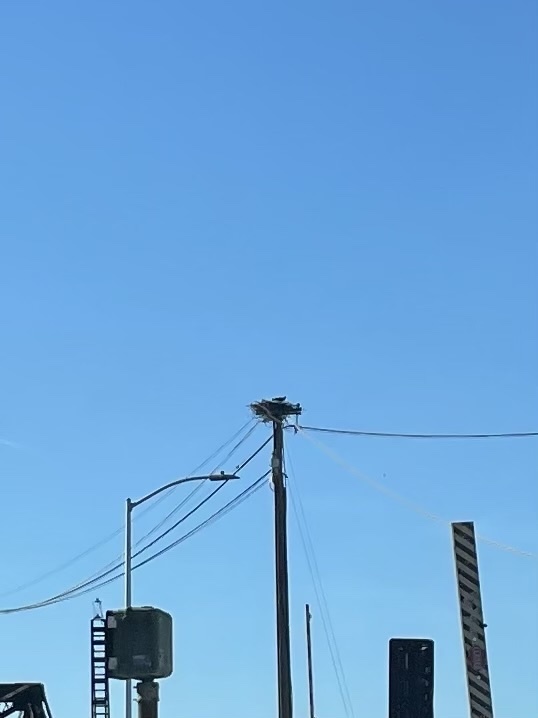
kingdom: Animalia
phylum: Chordata
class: Aves
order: Accipitriformes
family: Pandionidae
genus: Pandion
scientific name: Pandion haliaetus
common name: Osprey
